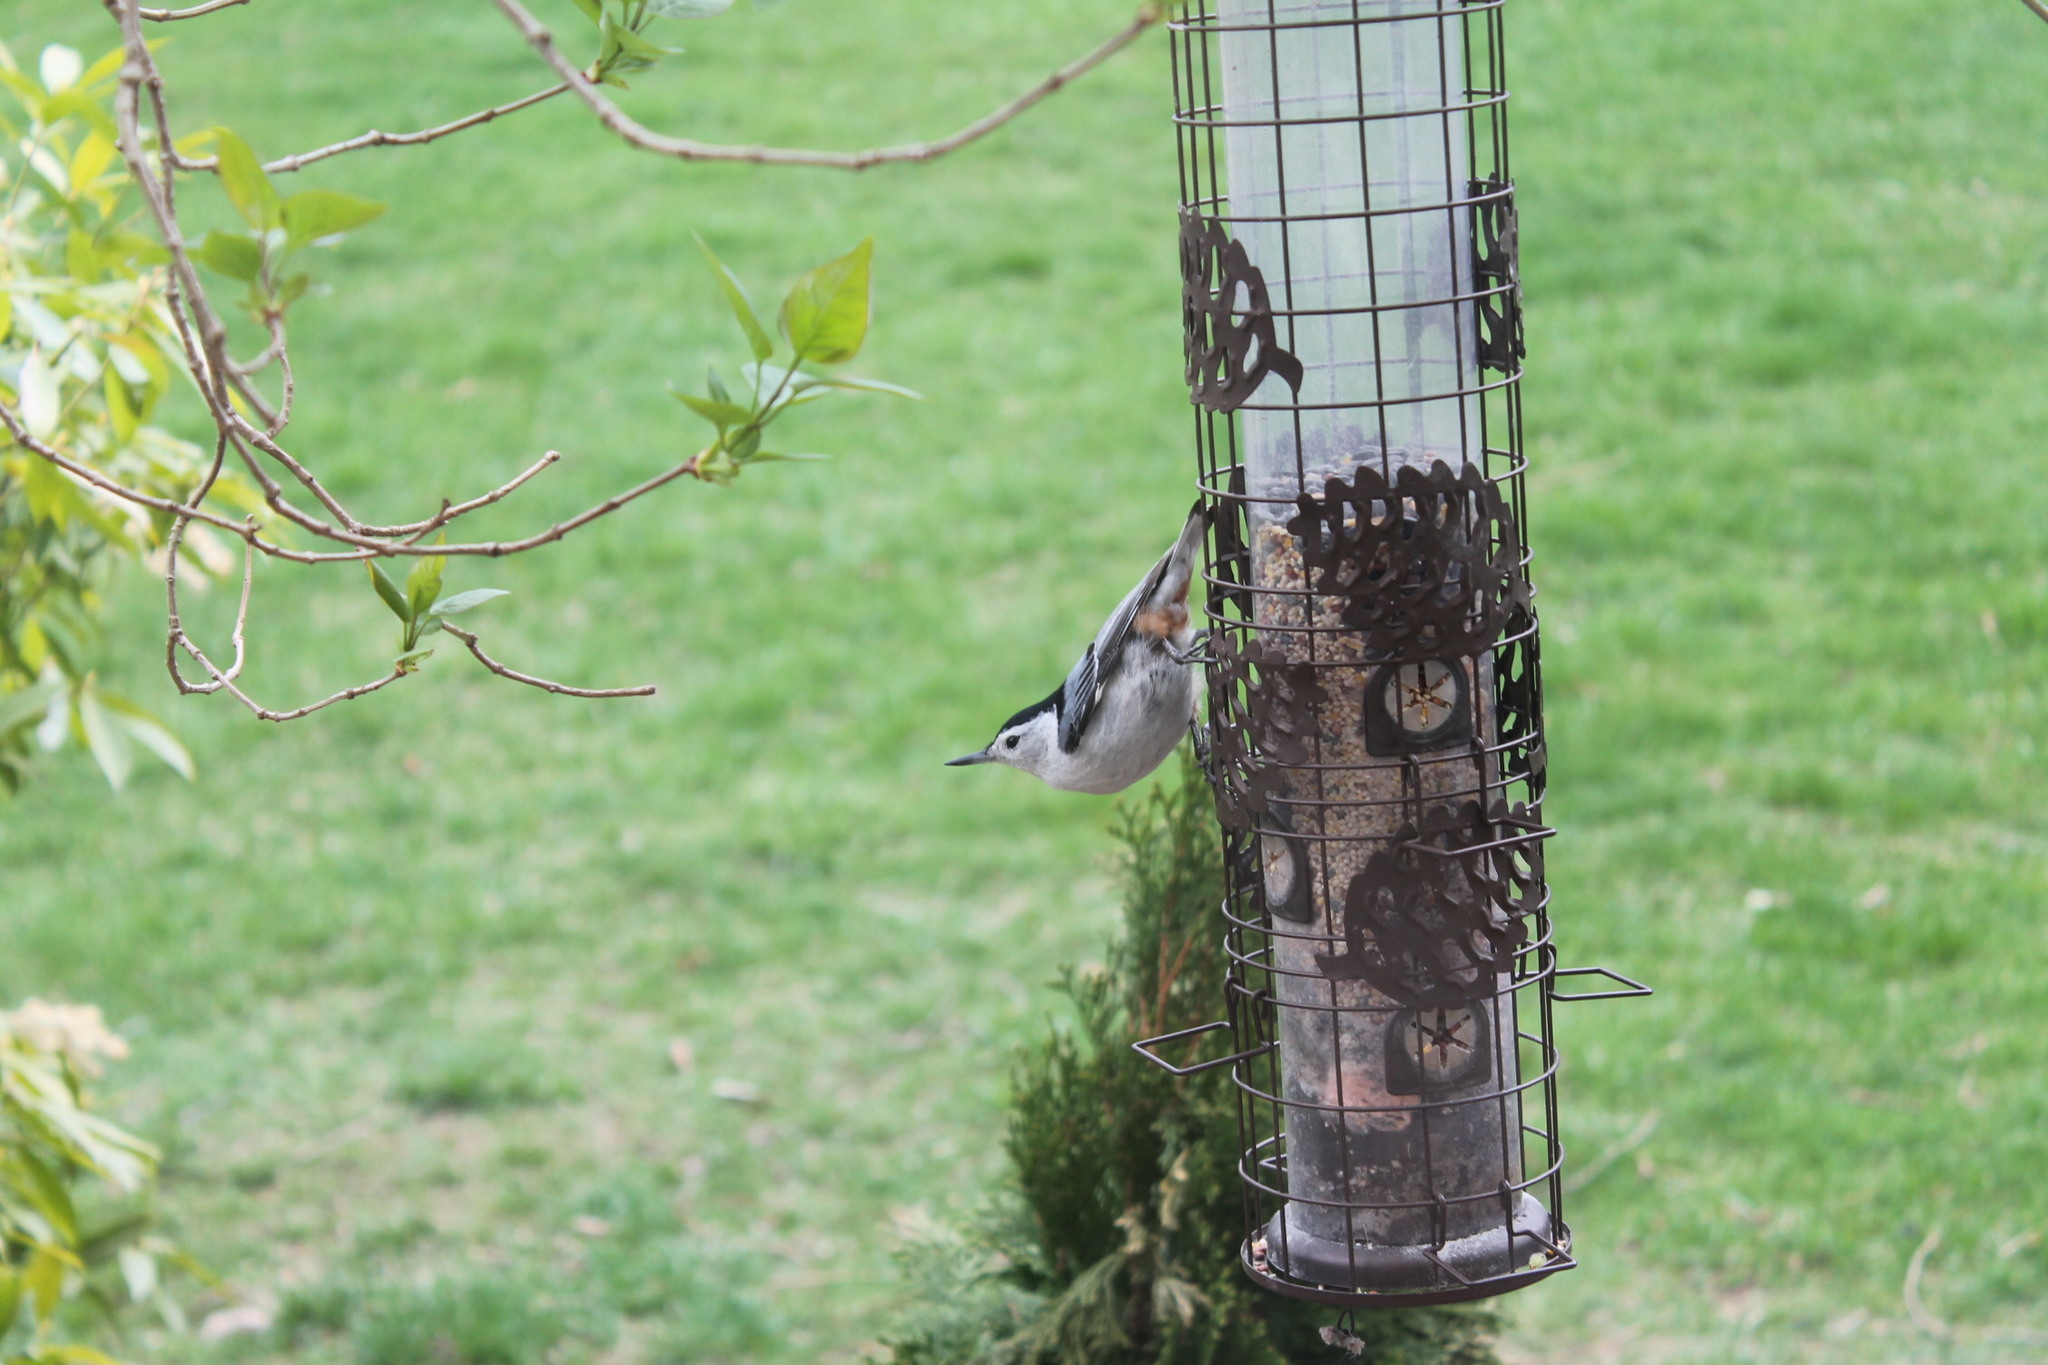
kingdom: Animalia
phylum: Chordata
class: Aves
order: Passeriformes
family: Sittidae
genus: Sitta
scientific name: Sitta carolinensis
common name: White-breasted nuthatch
